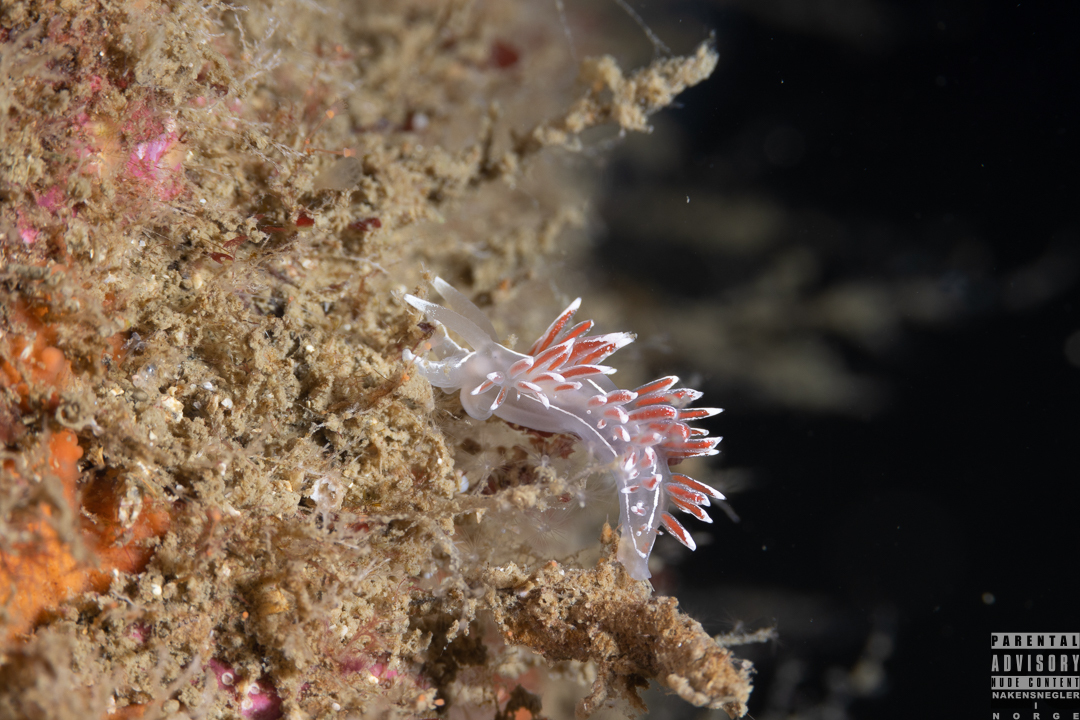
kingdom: Animalia
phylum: Mollusca
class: Gastropoda
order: Nudibranchia
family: Coryphellidae
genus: Coryphella
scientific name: Coryphella lineata
